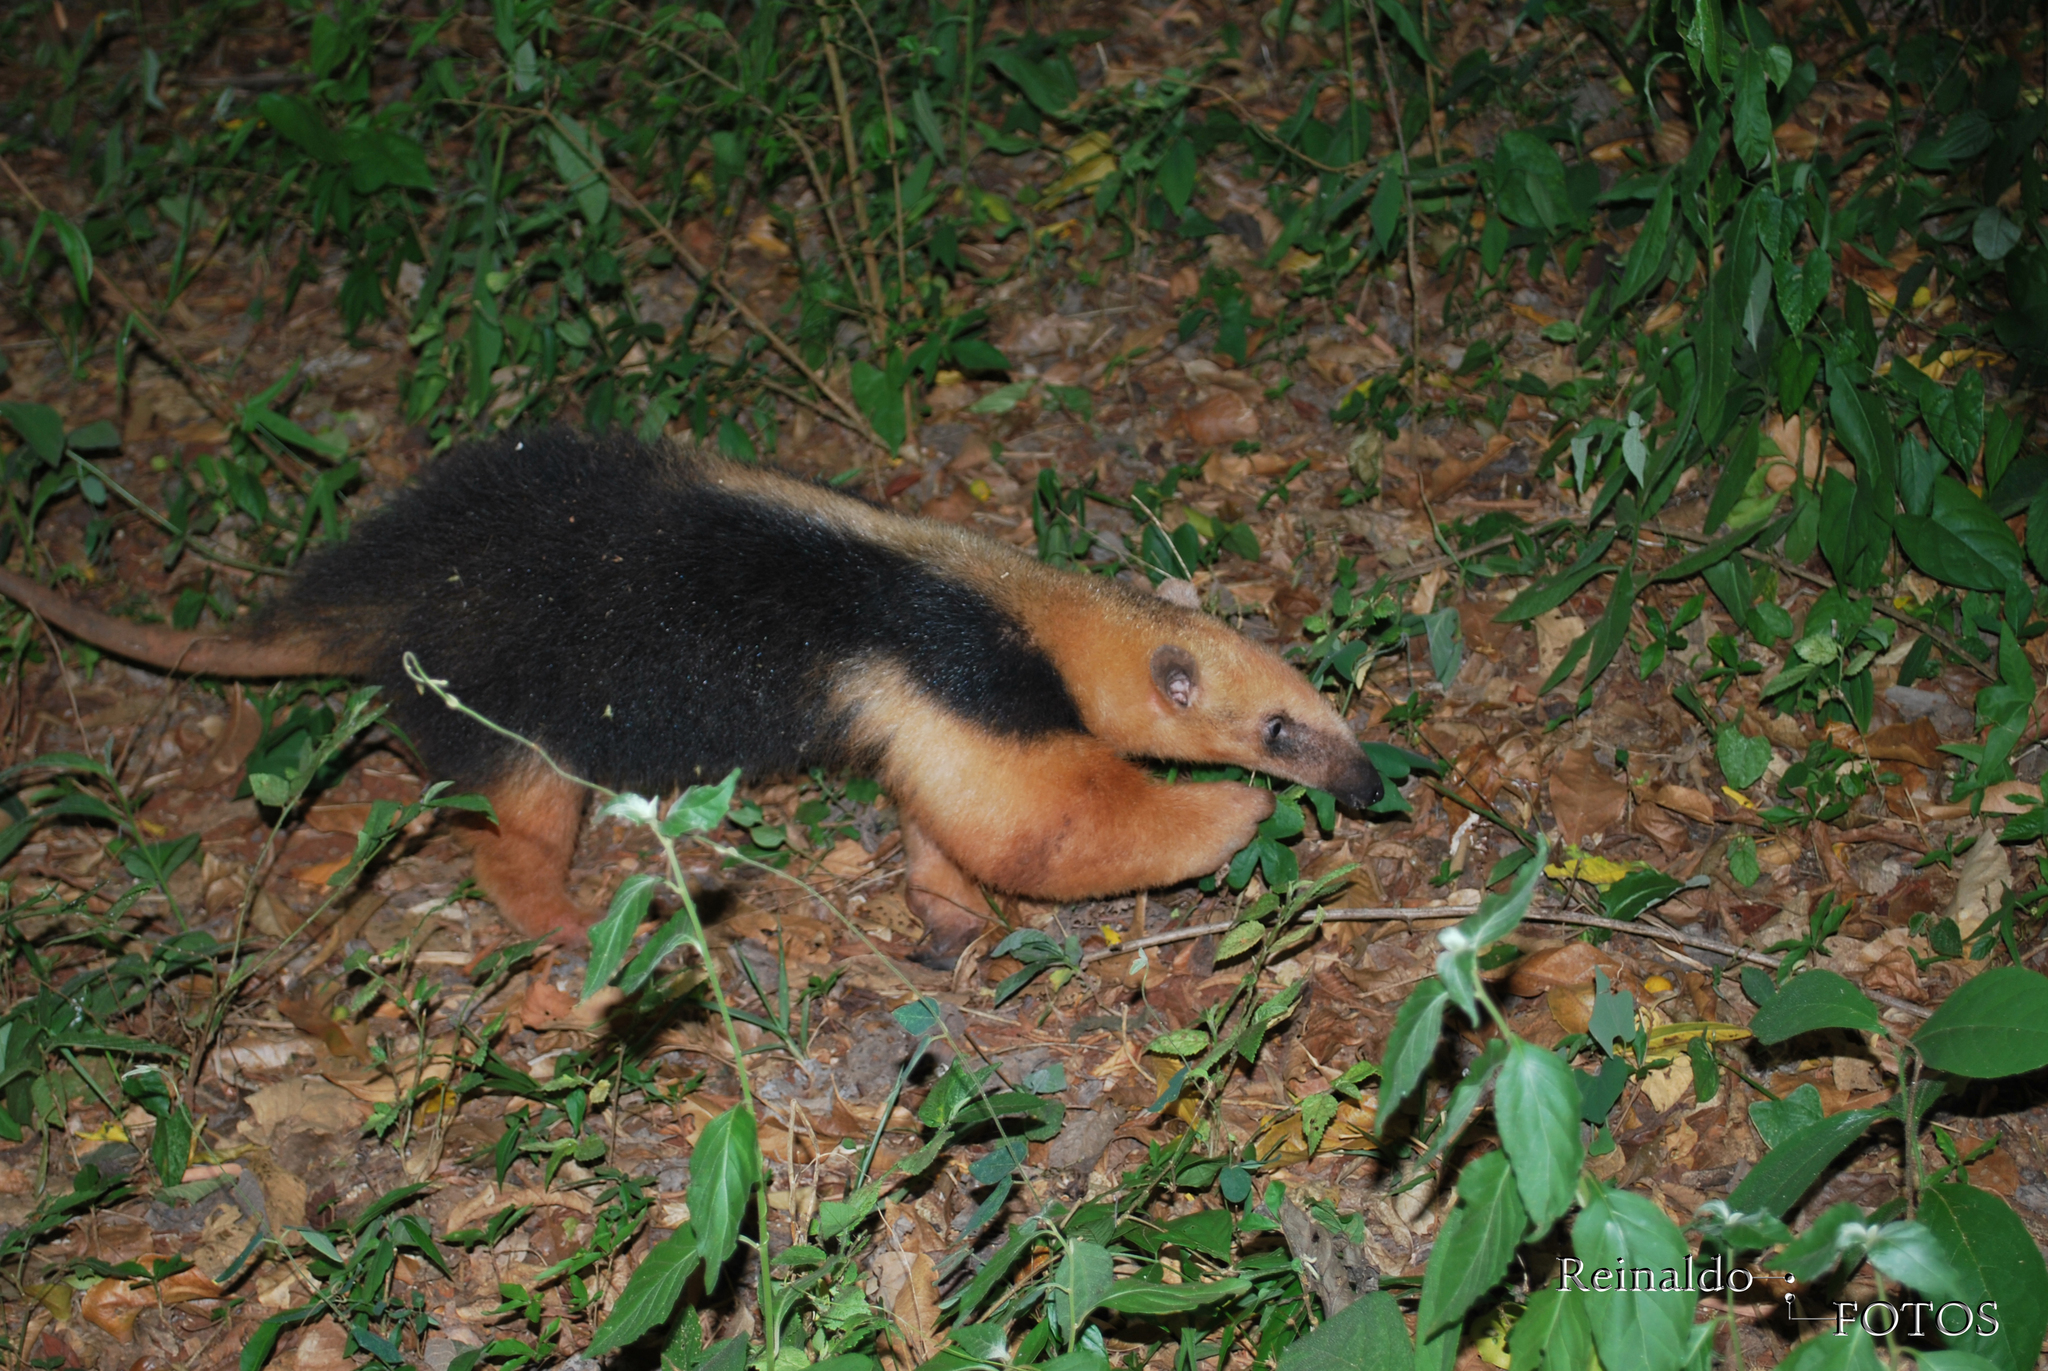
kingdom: Animalia
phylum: Chordata
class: Mammalia
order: Pilosa
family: Myrmecophagidae
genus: Tamandua
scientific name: Tamandua tetradactyla
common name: Southern tamandua
